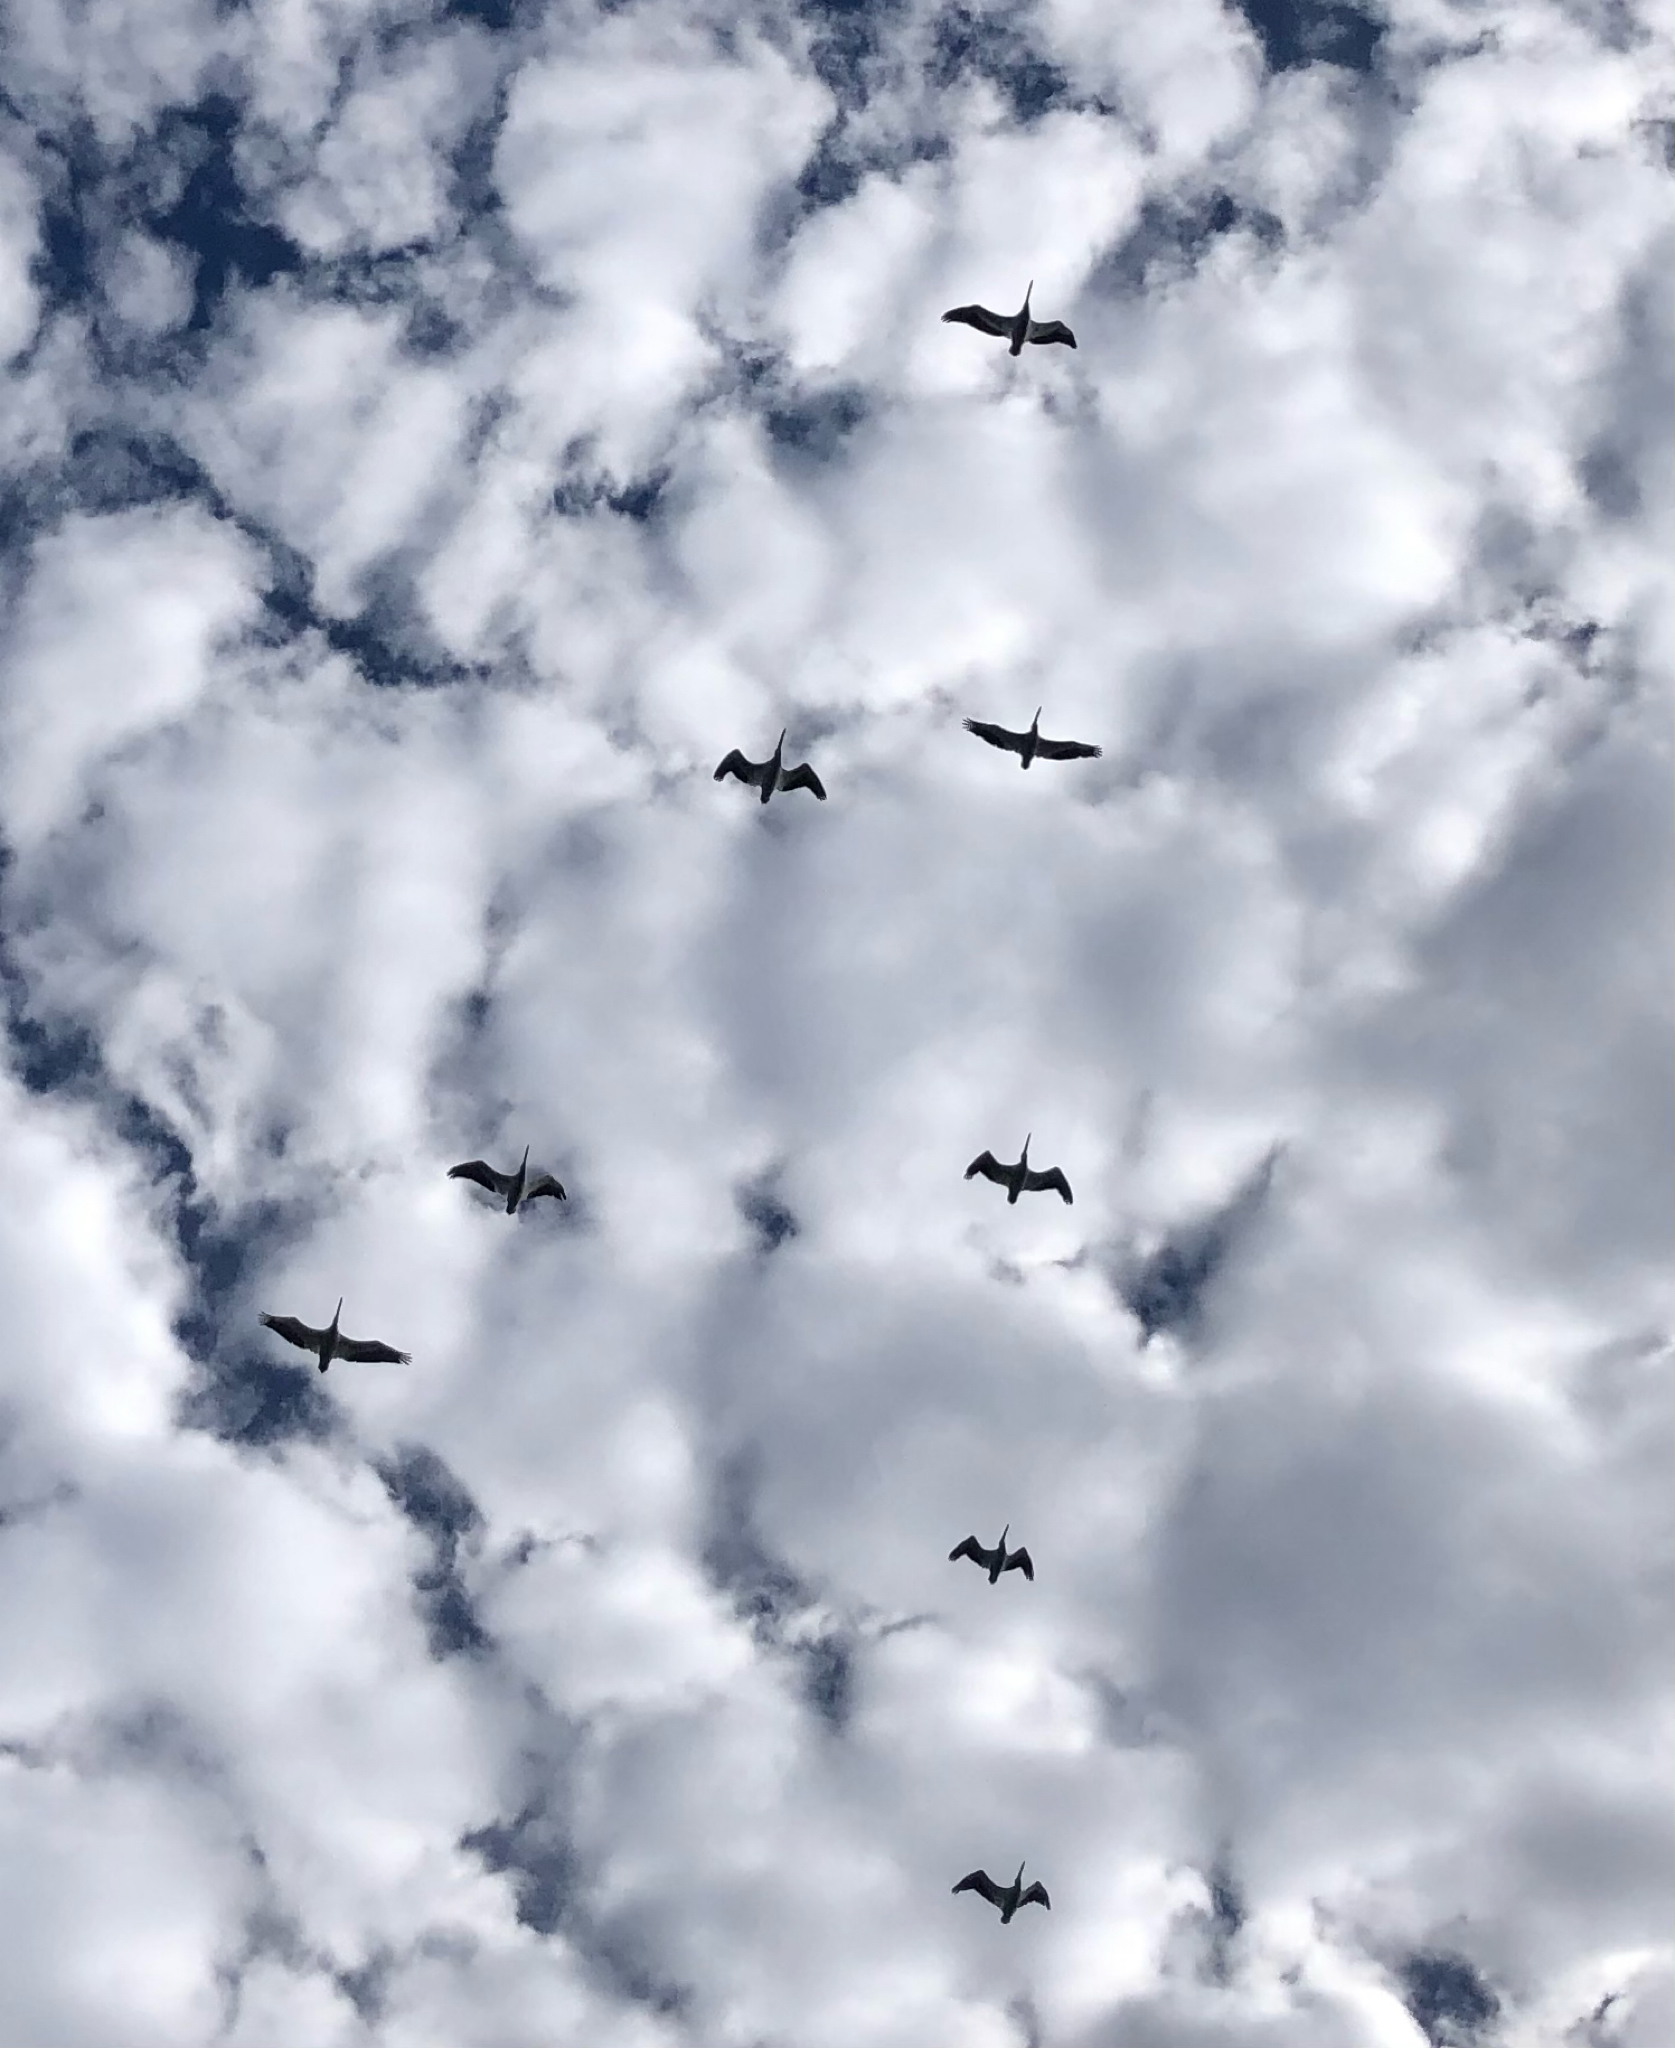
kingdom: Animalia
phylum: Chordata
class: Aves
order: Pelecaniformes
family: Pelecanidae
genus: Pelecanus
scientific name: Pelecanus erythrorhynchos
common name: American white pelican
